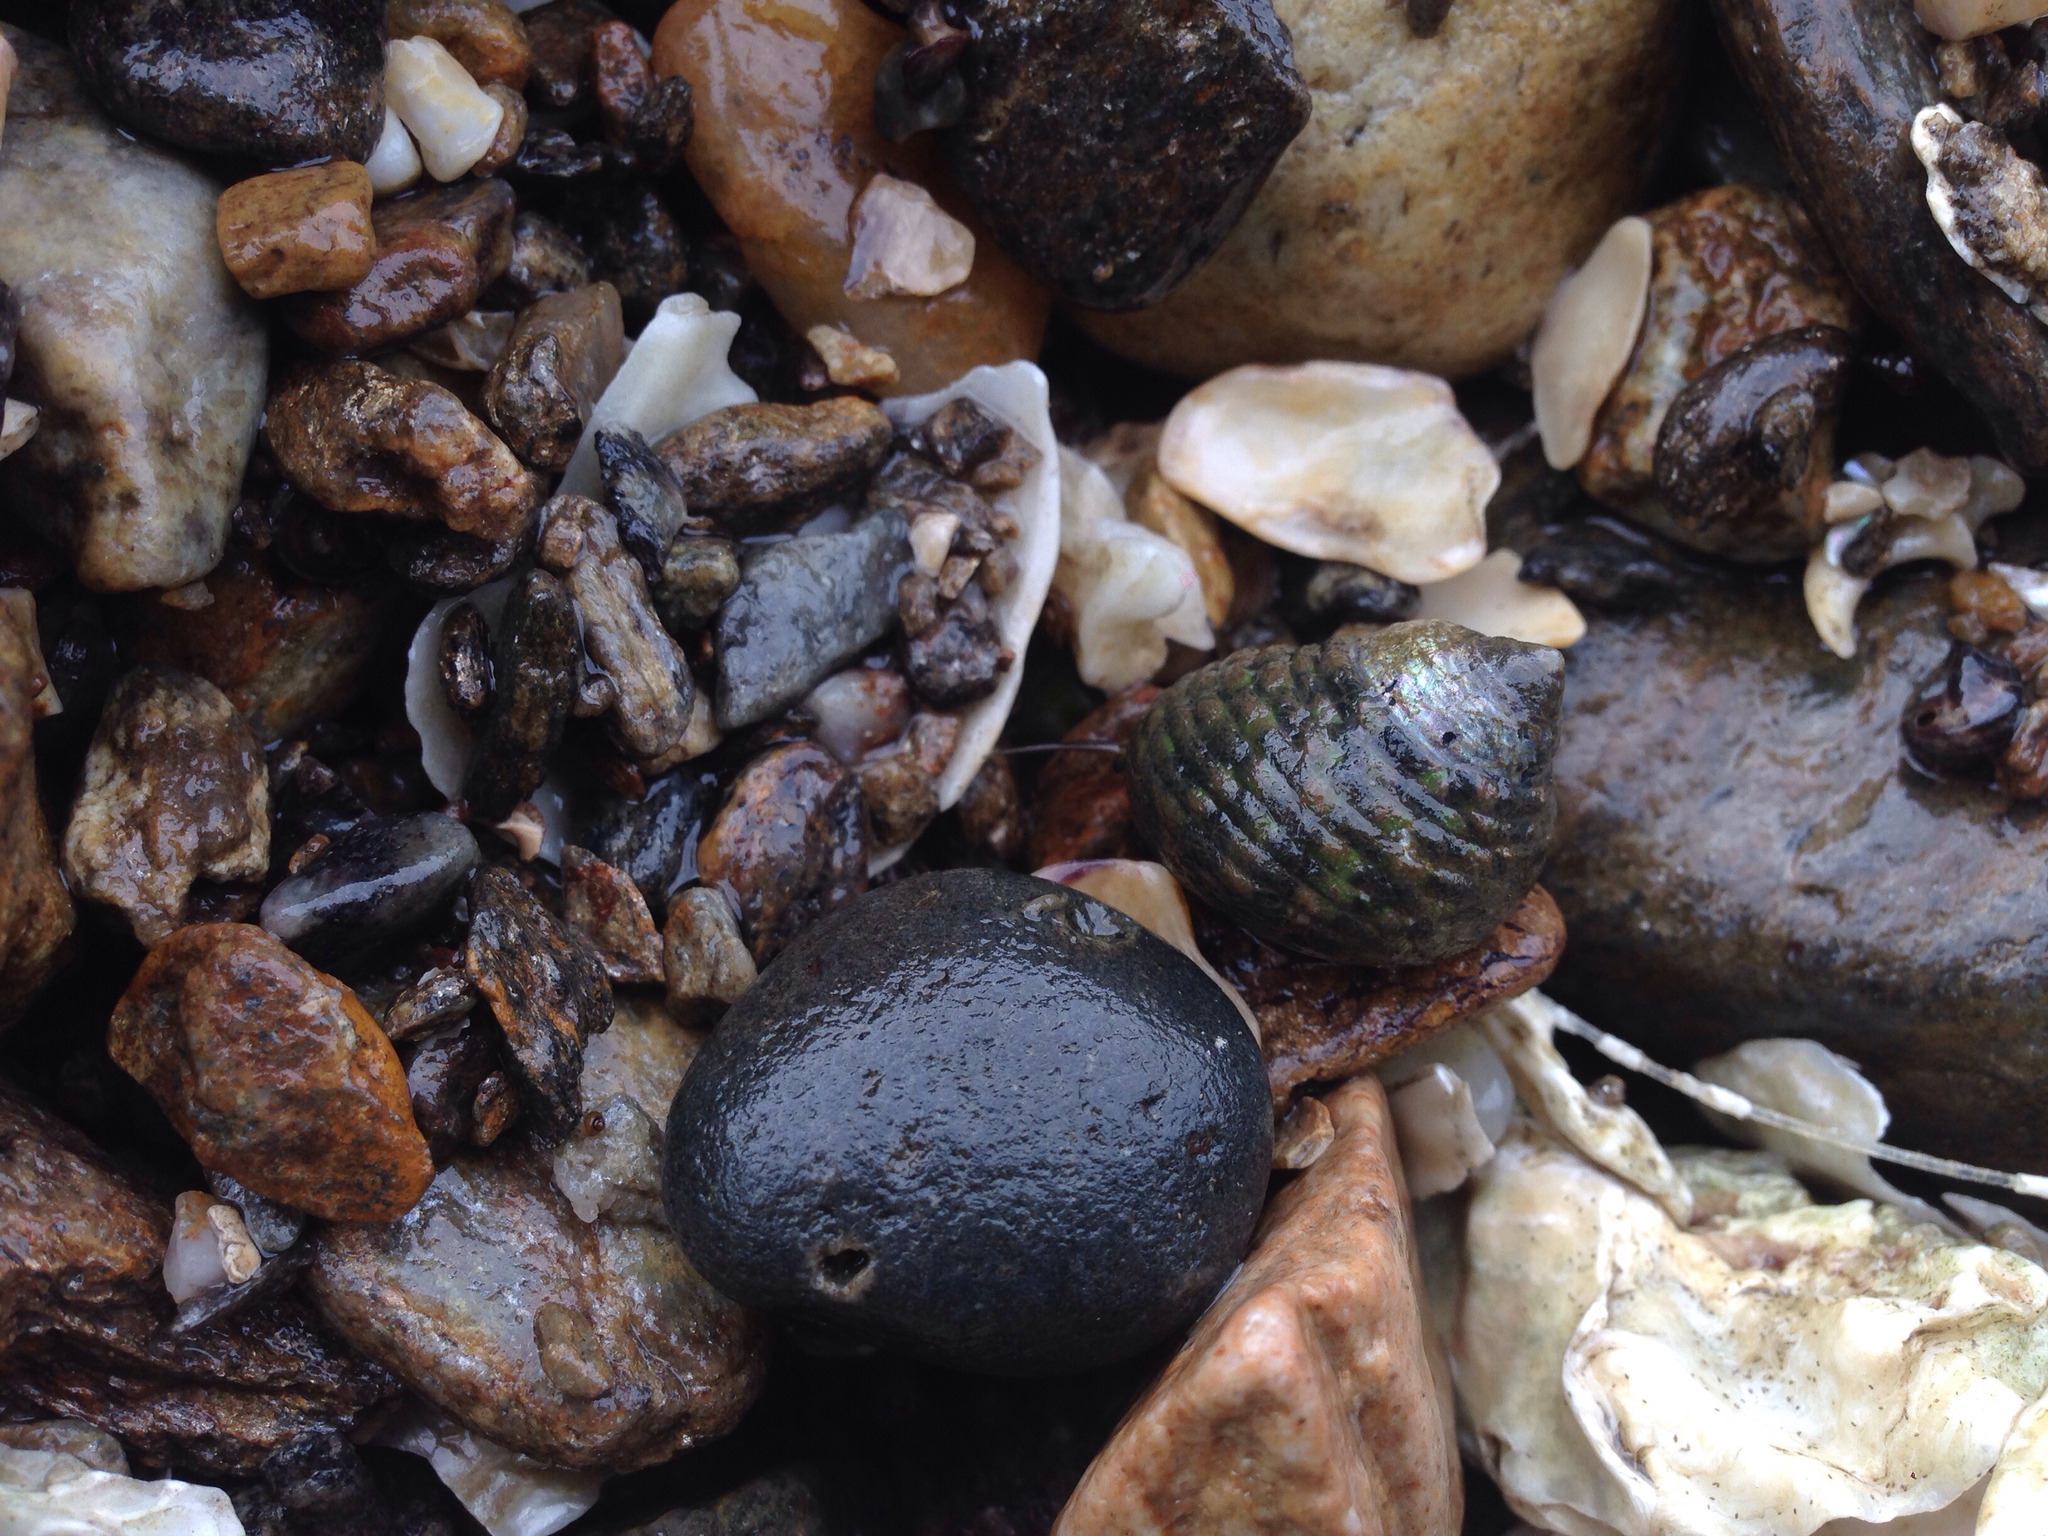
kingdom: Animalia
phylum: Mollusca
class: Gastropoda
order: Trochida
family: Trochidae
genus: Monodonta
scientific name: Monodonta confusa
